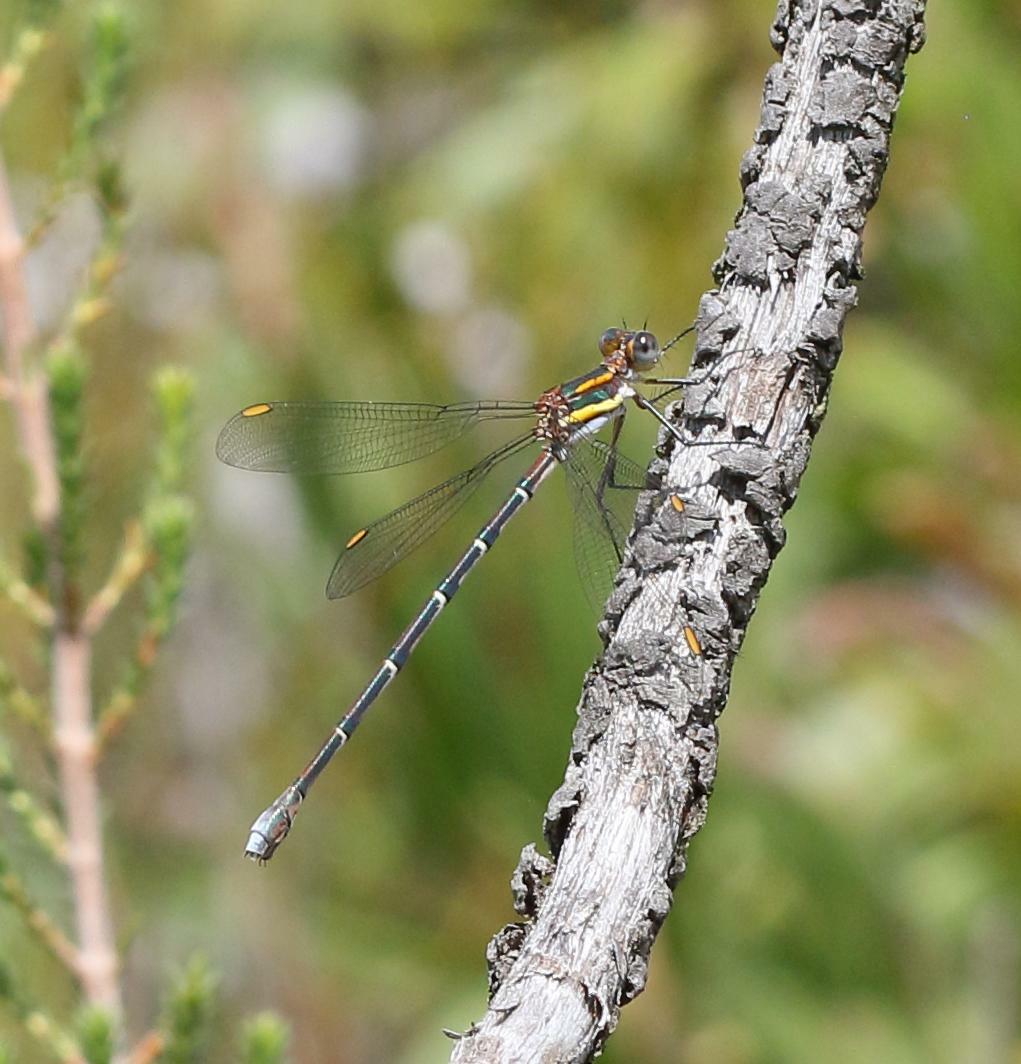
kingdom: Animalia
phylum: Arthropoda
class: Insecta
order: Odonata
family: Synlestidae
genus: Chlorolestes
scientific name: Chlorolestes conspicuus
